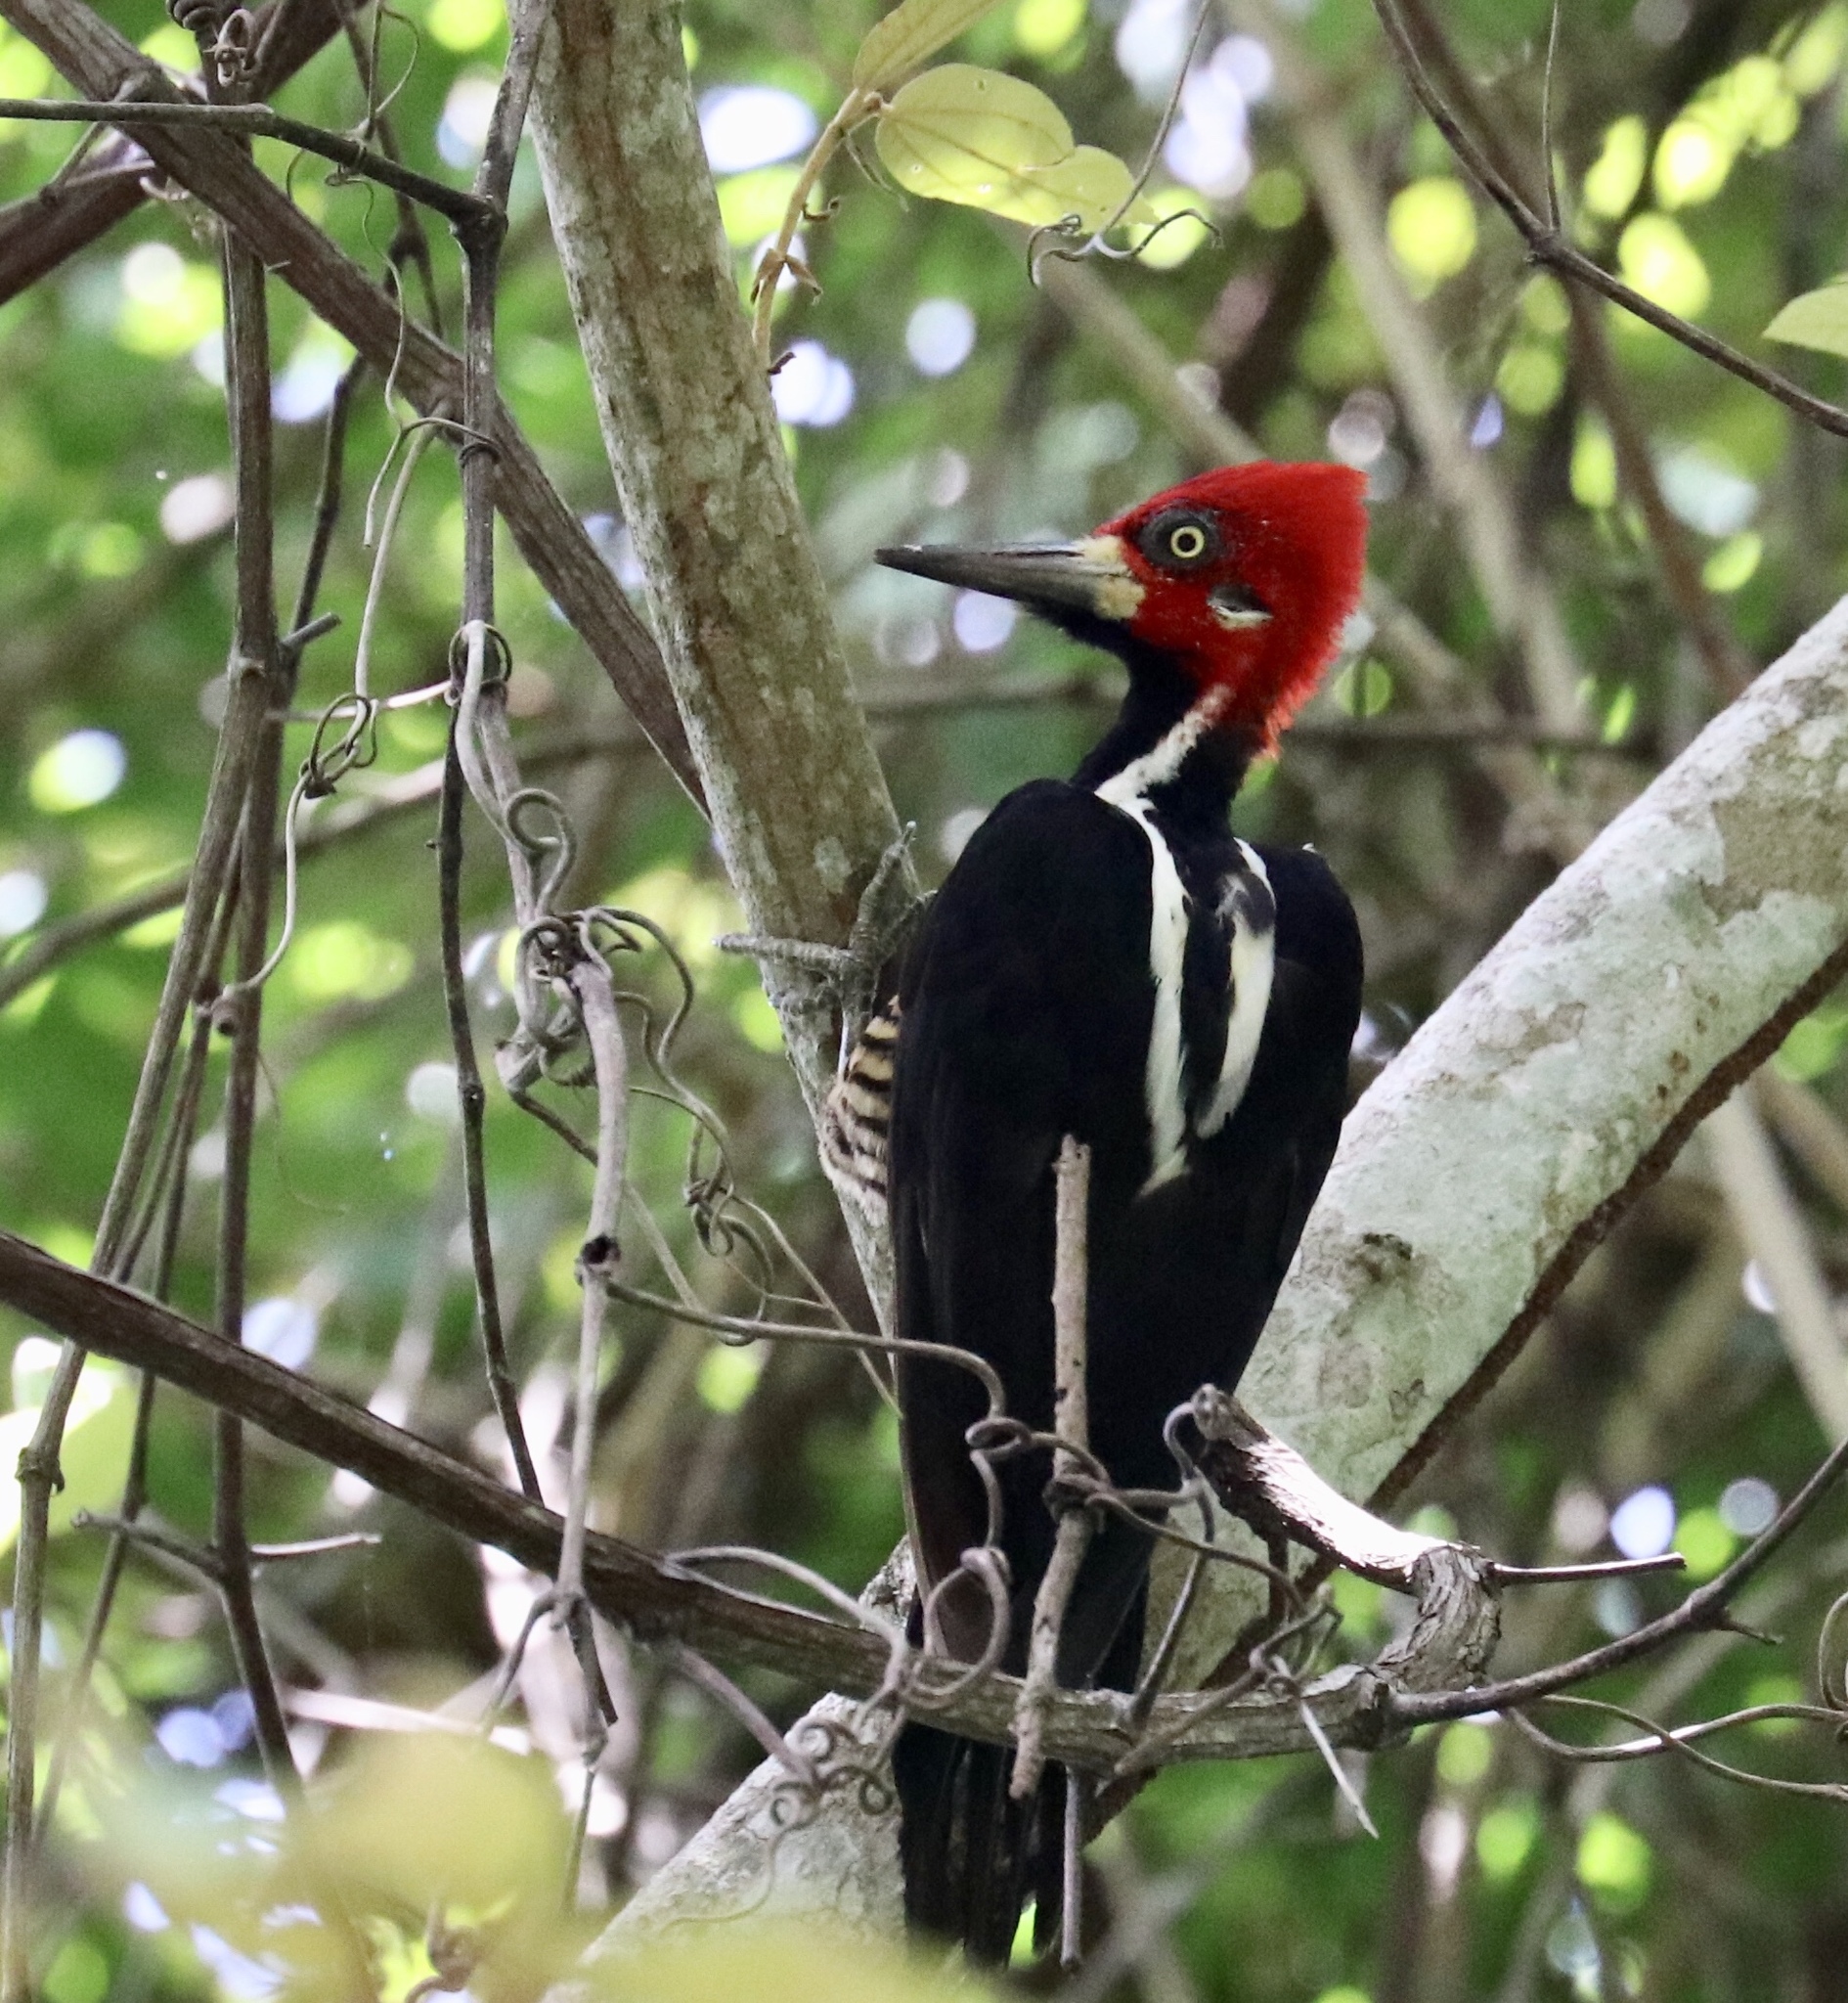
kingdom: Animalia
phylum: Chordata
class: Aves
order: Piciformes
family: Picidae
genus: Campephilus
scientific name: Campephilus melanoleucos
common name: Crimson-crested woodpecker
